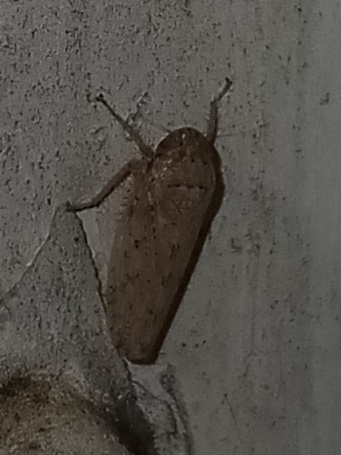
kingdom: Animalia
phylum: Arthropoda
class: Insecta
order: Hemiptera
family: Cicadellidae
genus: Curtara
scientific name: Curtara insularis
